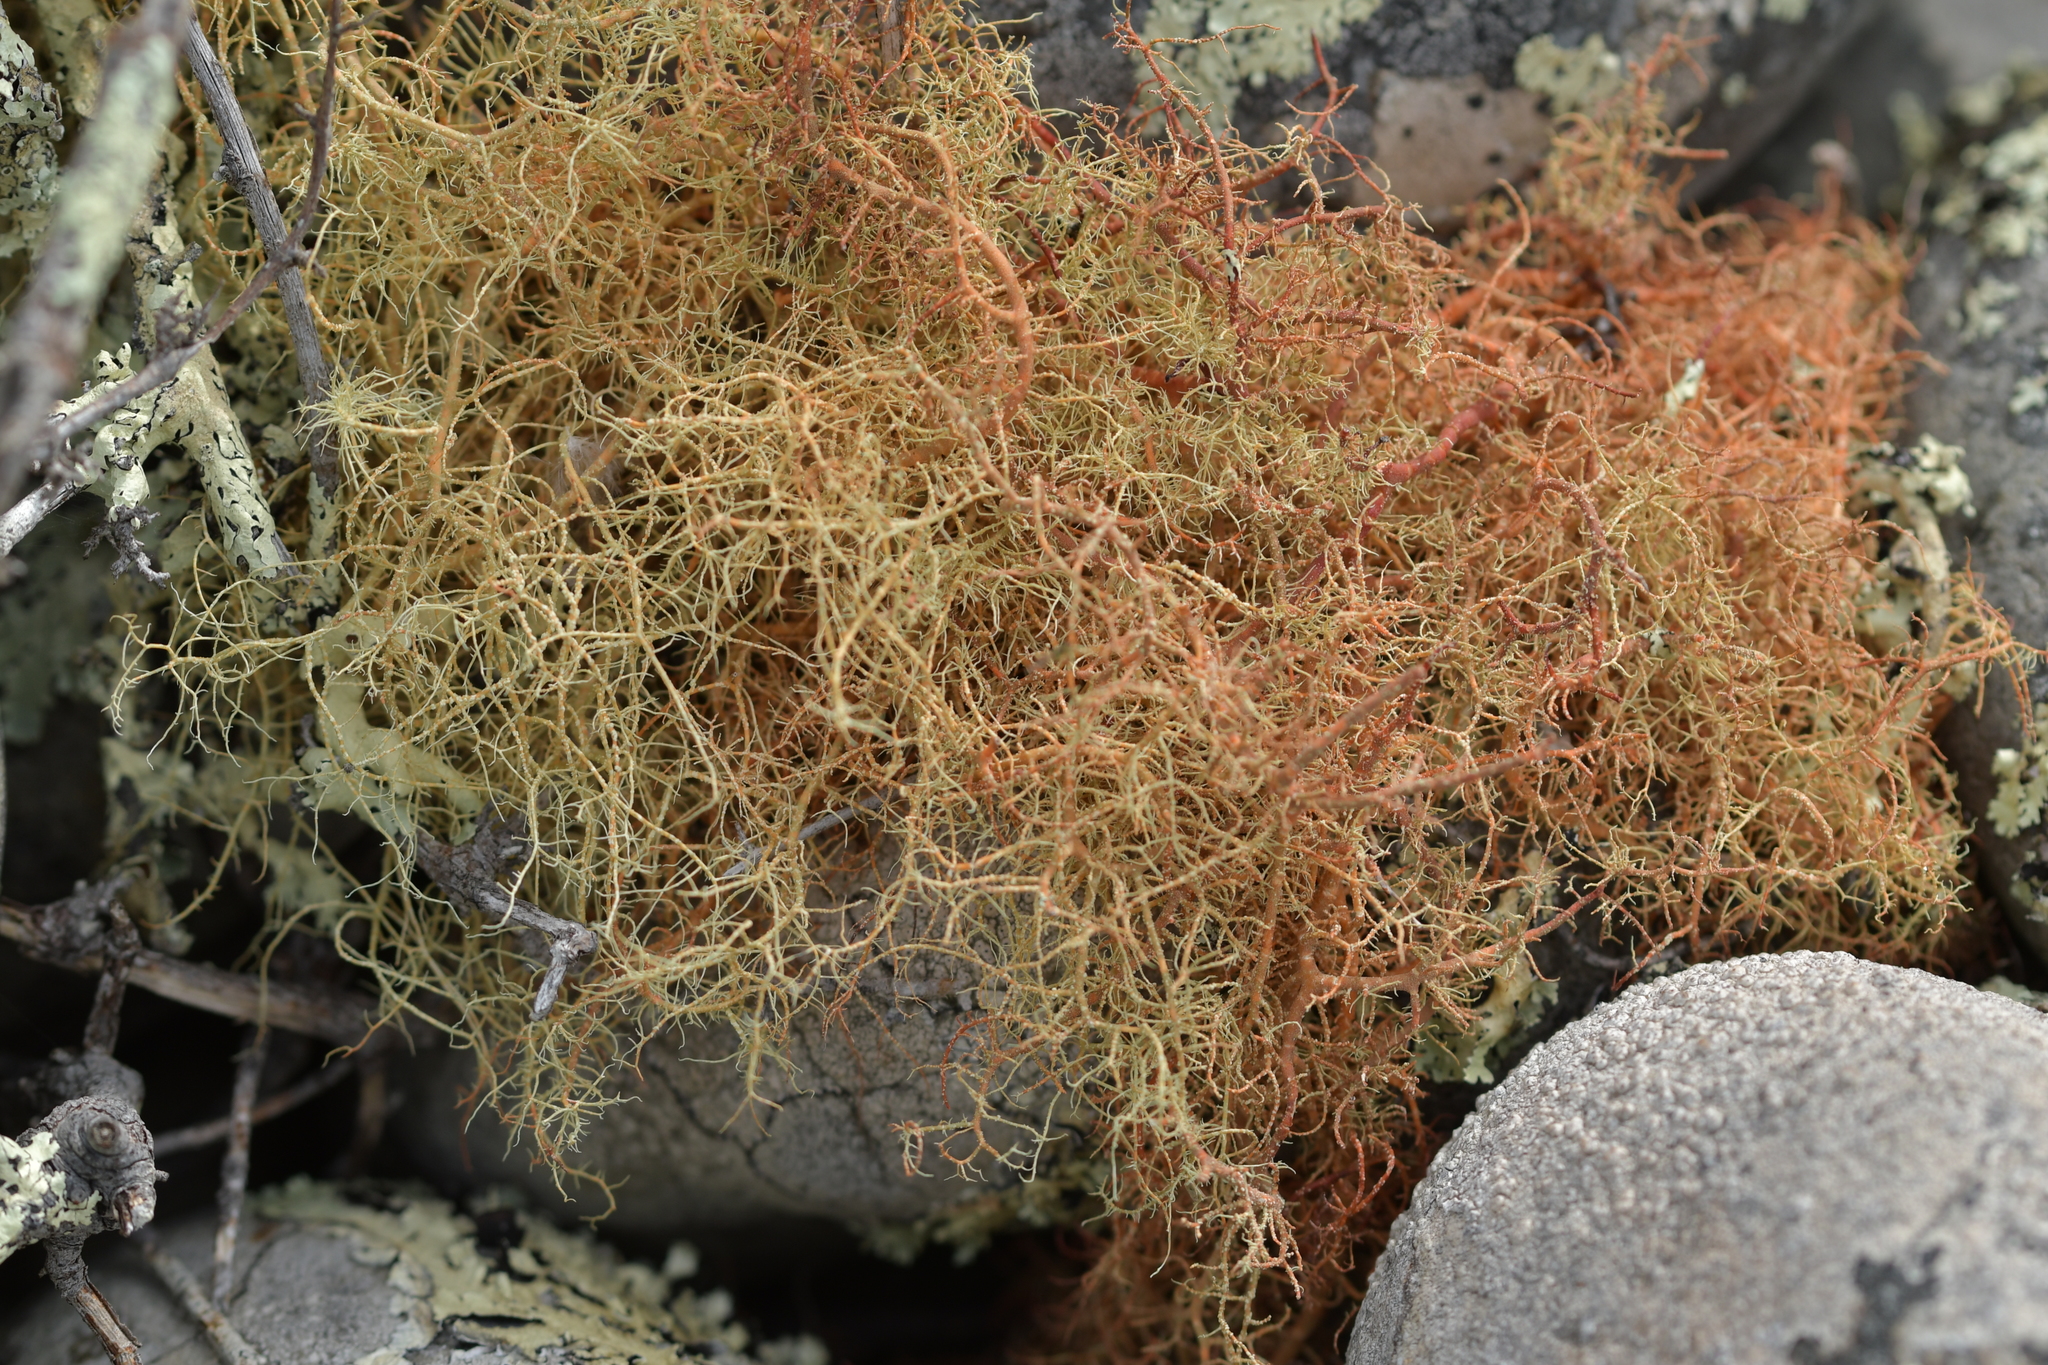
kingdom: Fungi
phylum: Ascomycota
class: Lecanoromycetes
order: Lecanorales
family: Parmeliaceae
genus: Usnea
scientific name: Usnea rubicunda
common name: Red beard lichen
